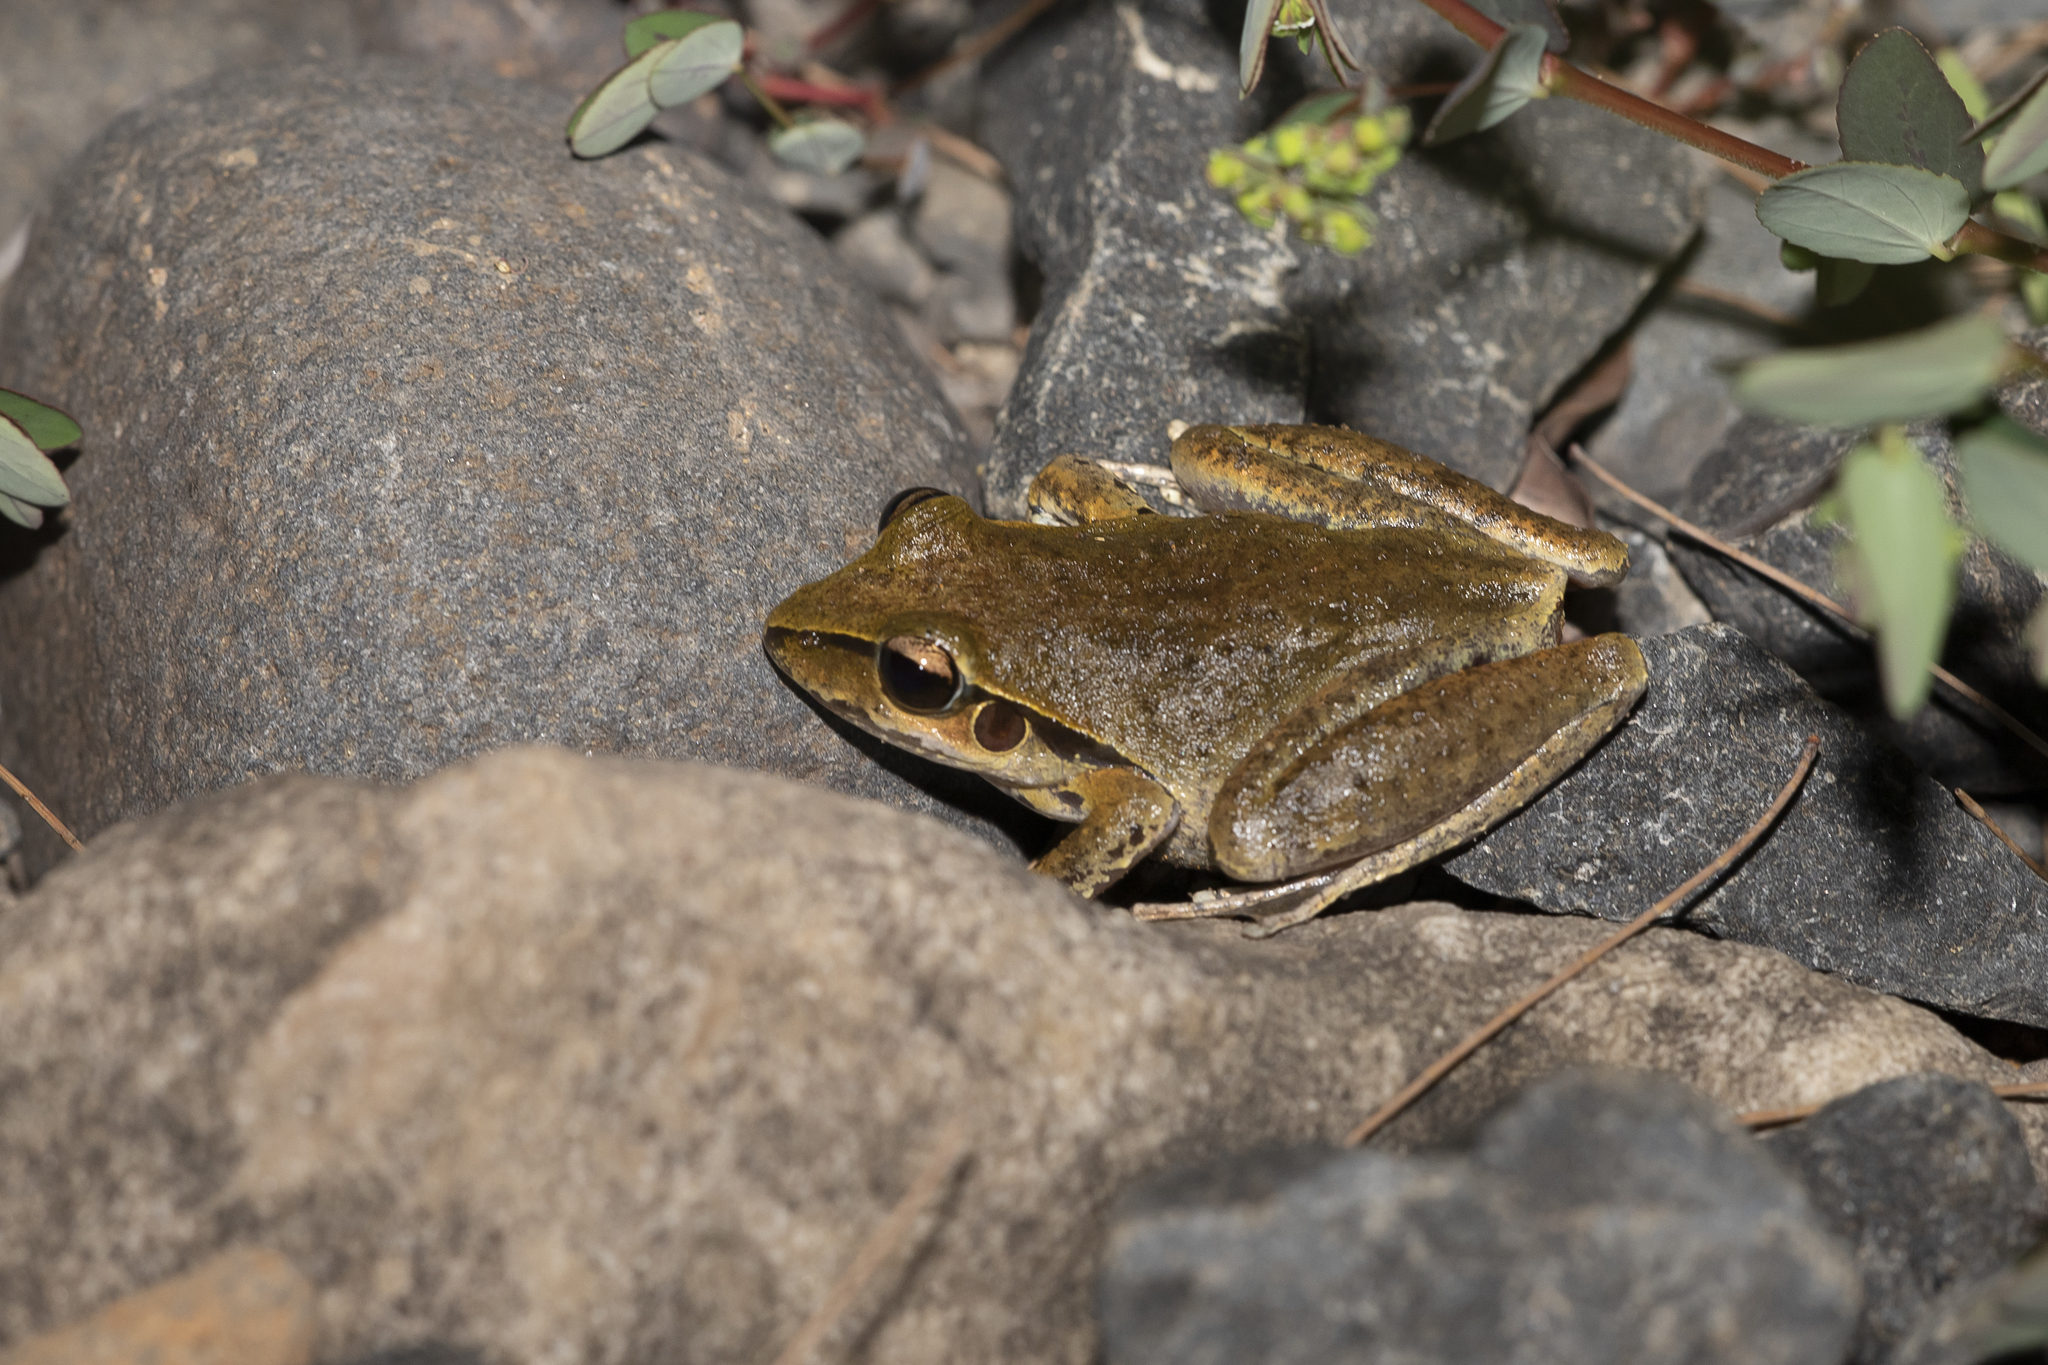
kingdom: Animalia
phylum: Chordata
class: Amphibia
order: Anura
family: Pelodryadidae
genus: Ranoidea
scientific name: Ranoidea wilcoxii
